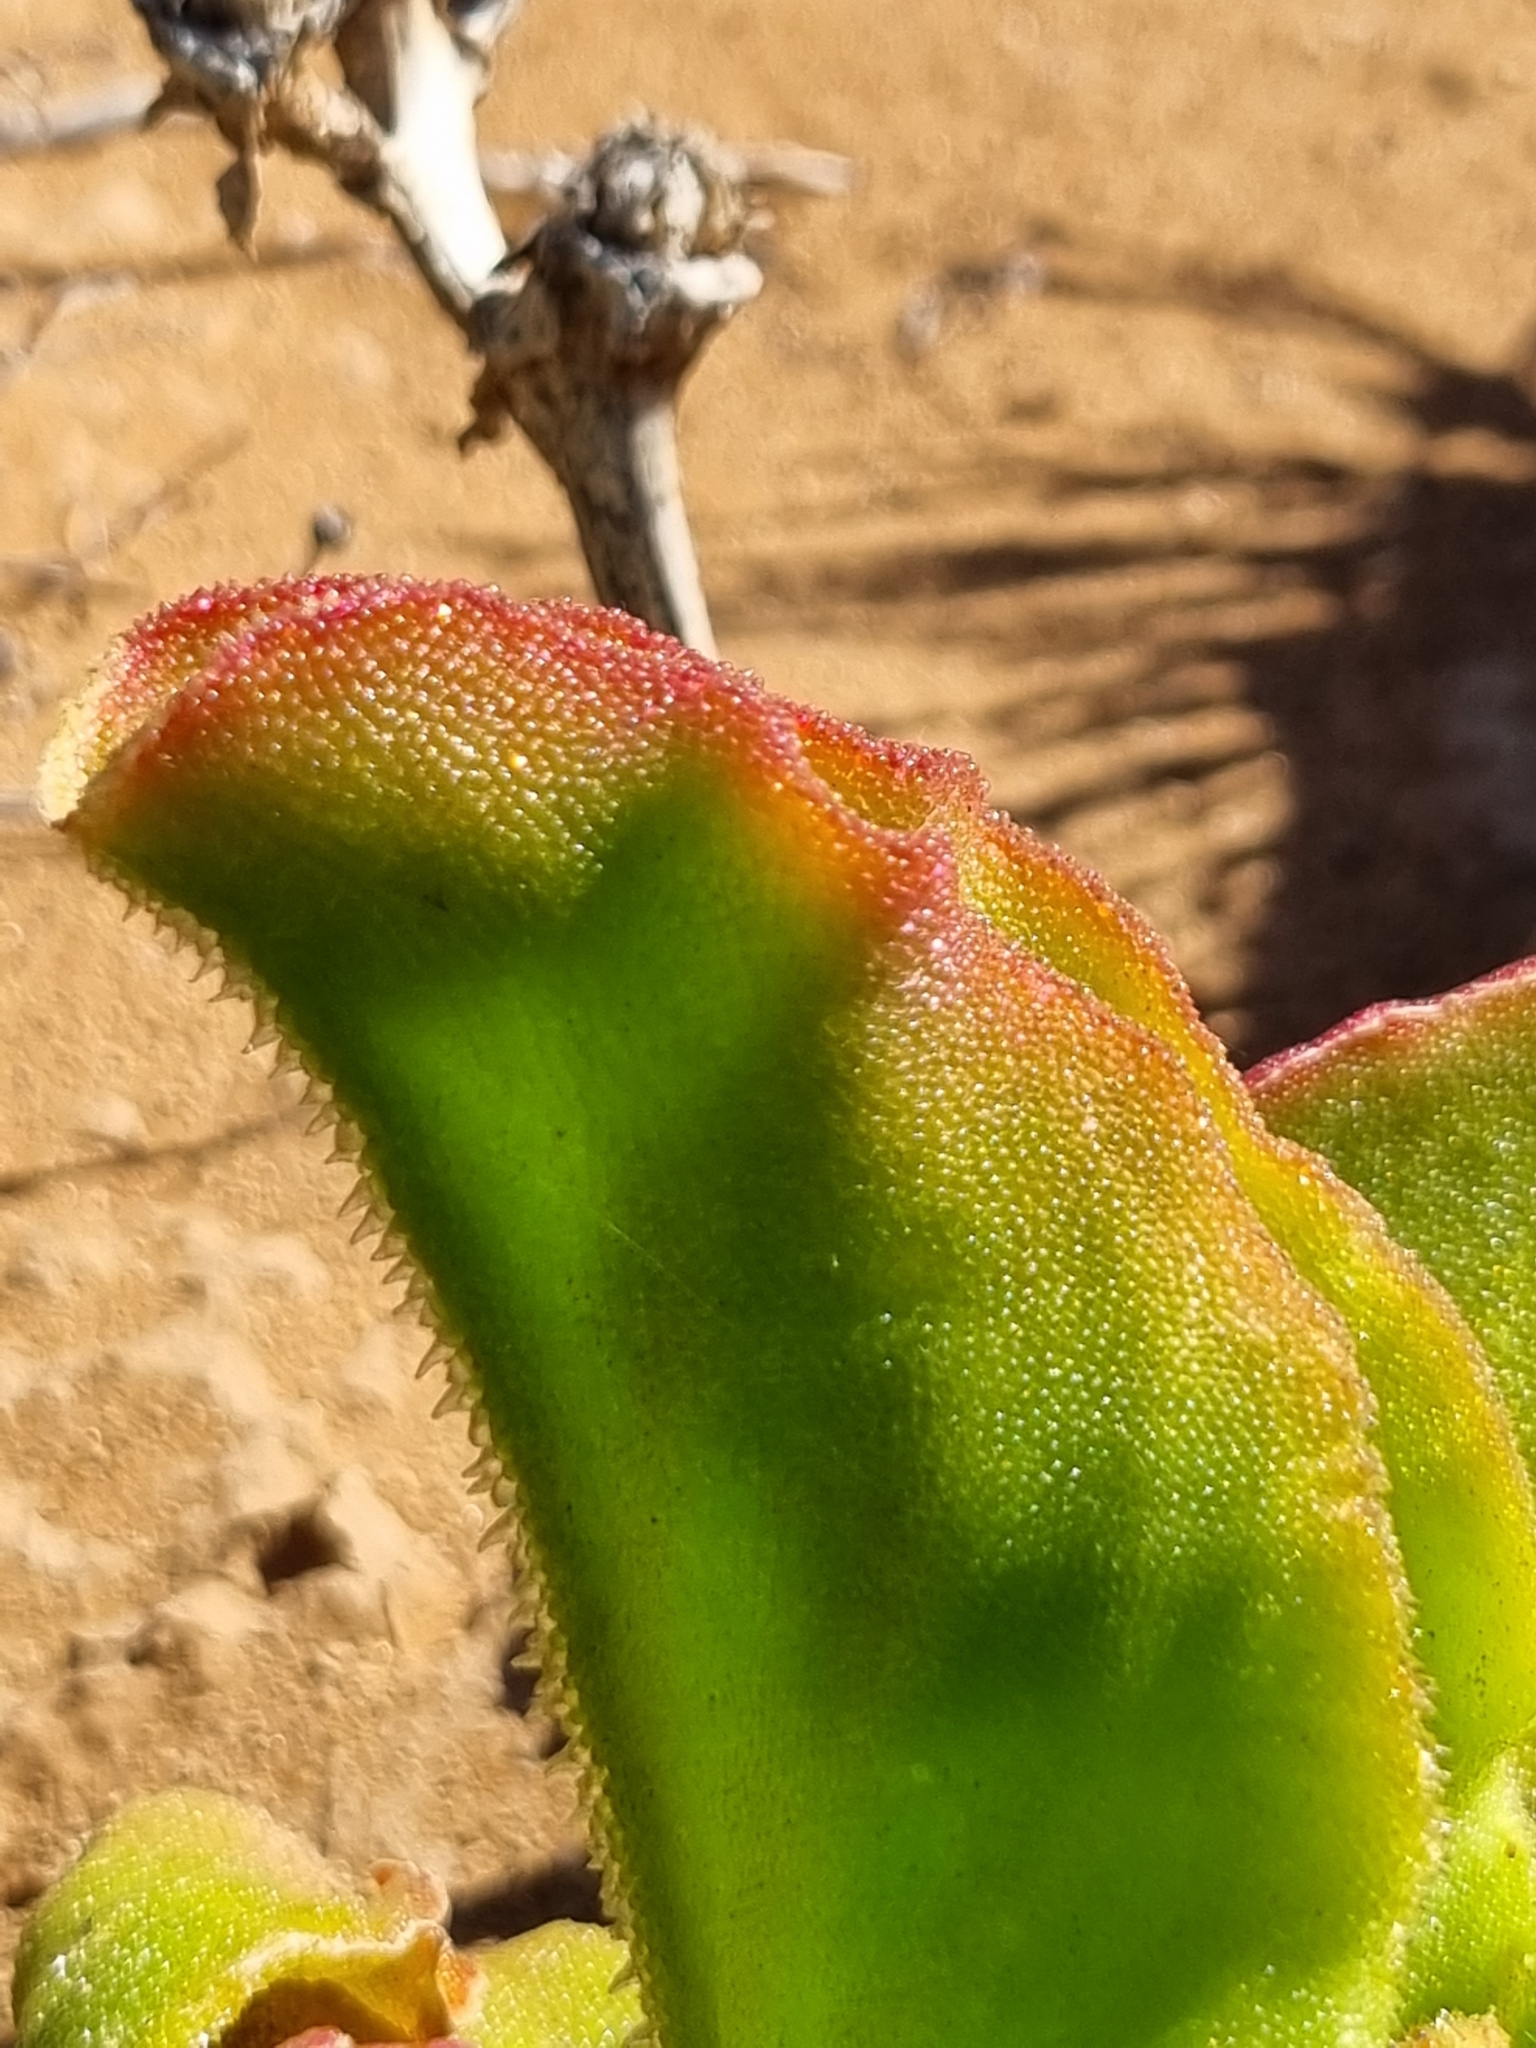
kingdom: Plantae
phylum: Tracheophyta
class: Magnoliopsida
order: Caryophyllales
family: Aizoaceae
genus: Mesembryanthemum
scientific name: Mesembryanthemum barklyi
